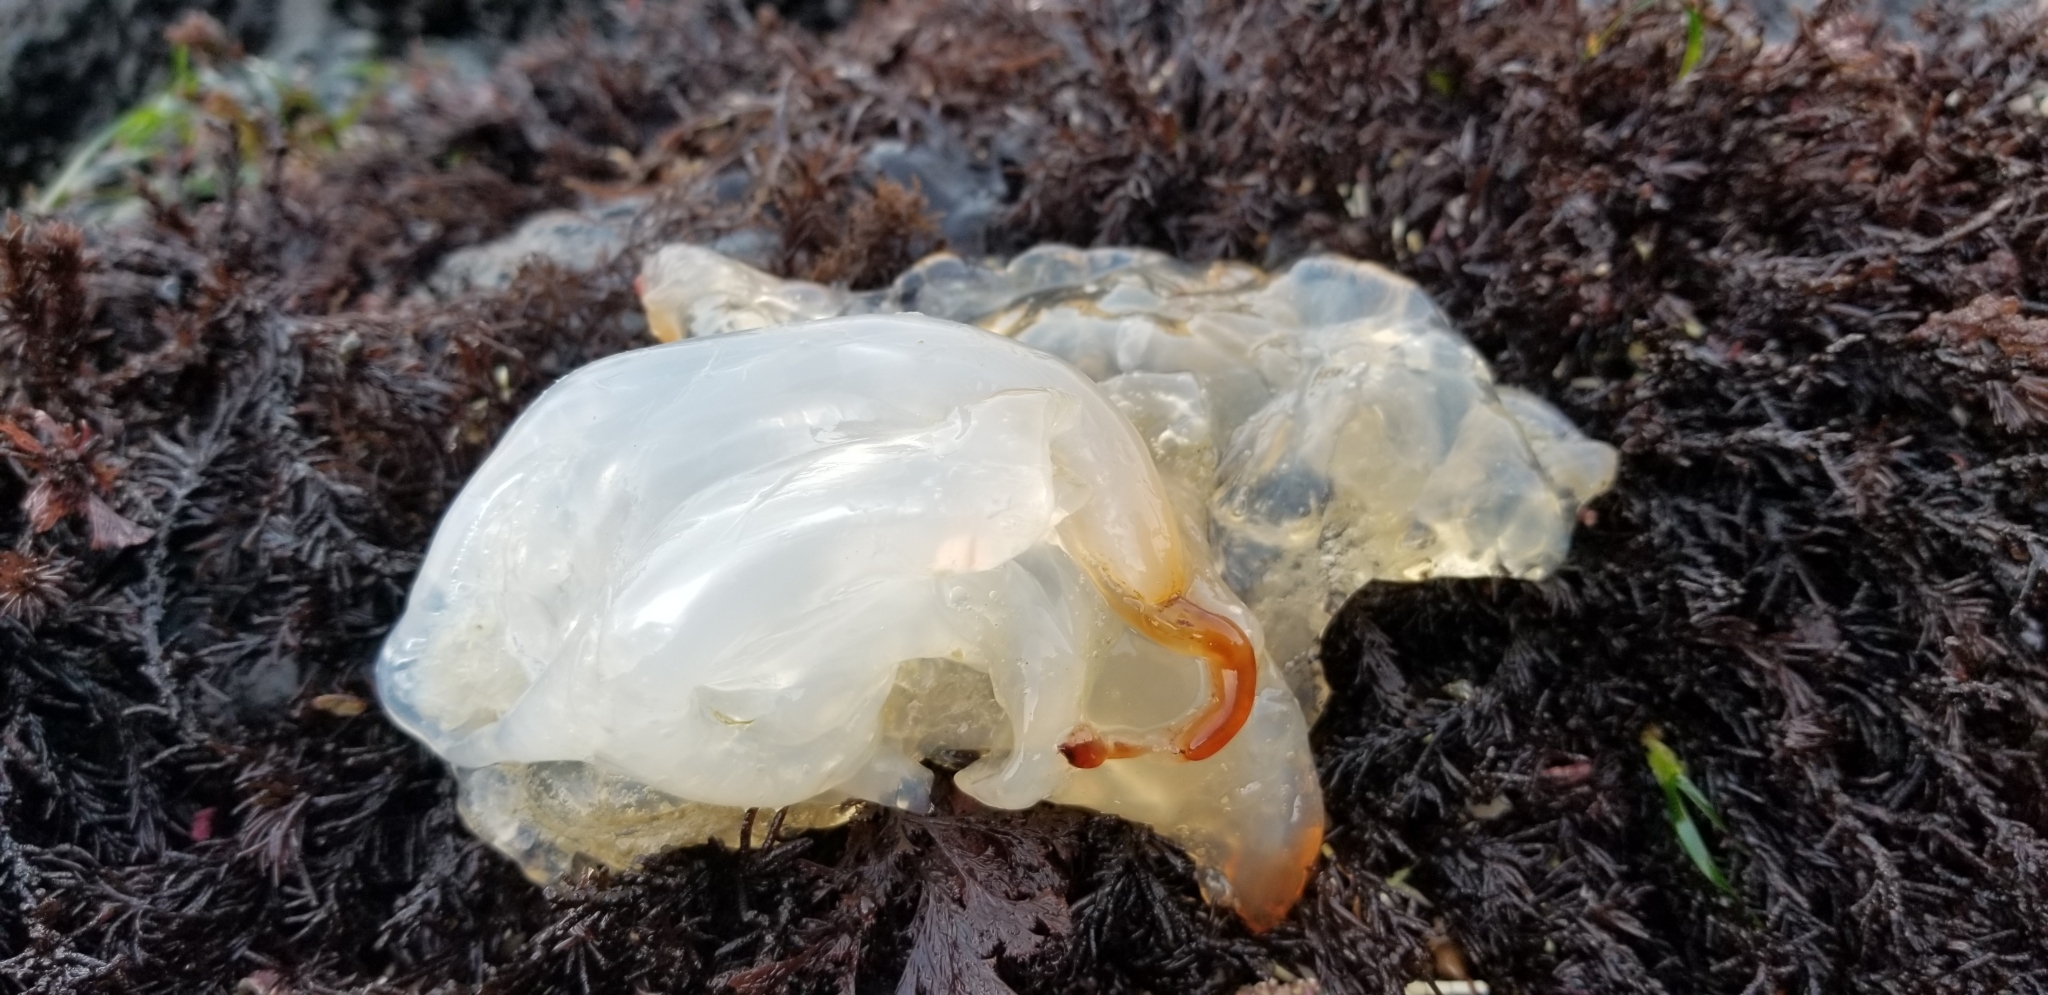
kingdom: Animalia
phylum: Cnidaria
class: Scyphozoa
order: Semaeostomeae
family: Pelagiidae
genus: Chrysaora
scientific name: Chrysaora fuscescens
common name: Sea nettle
